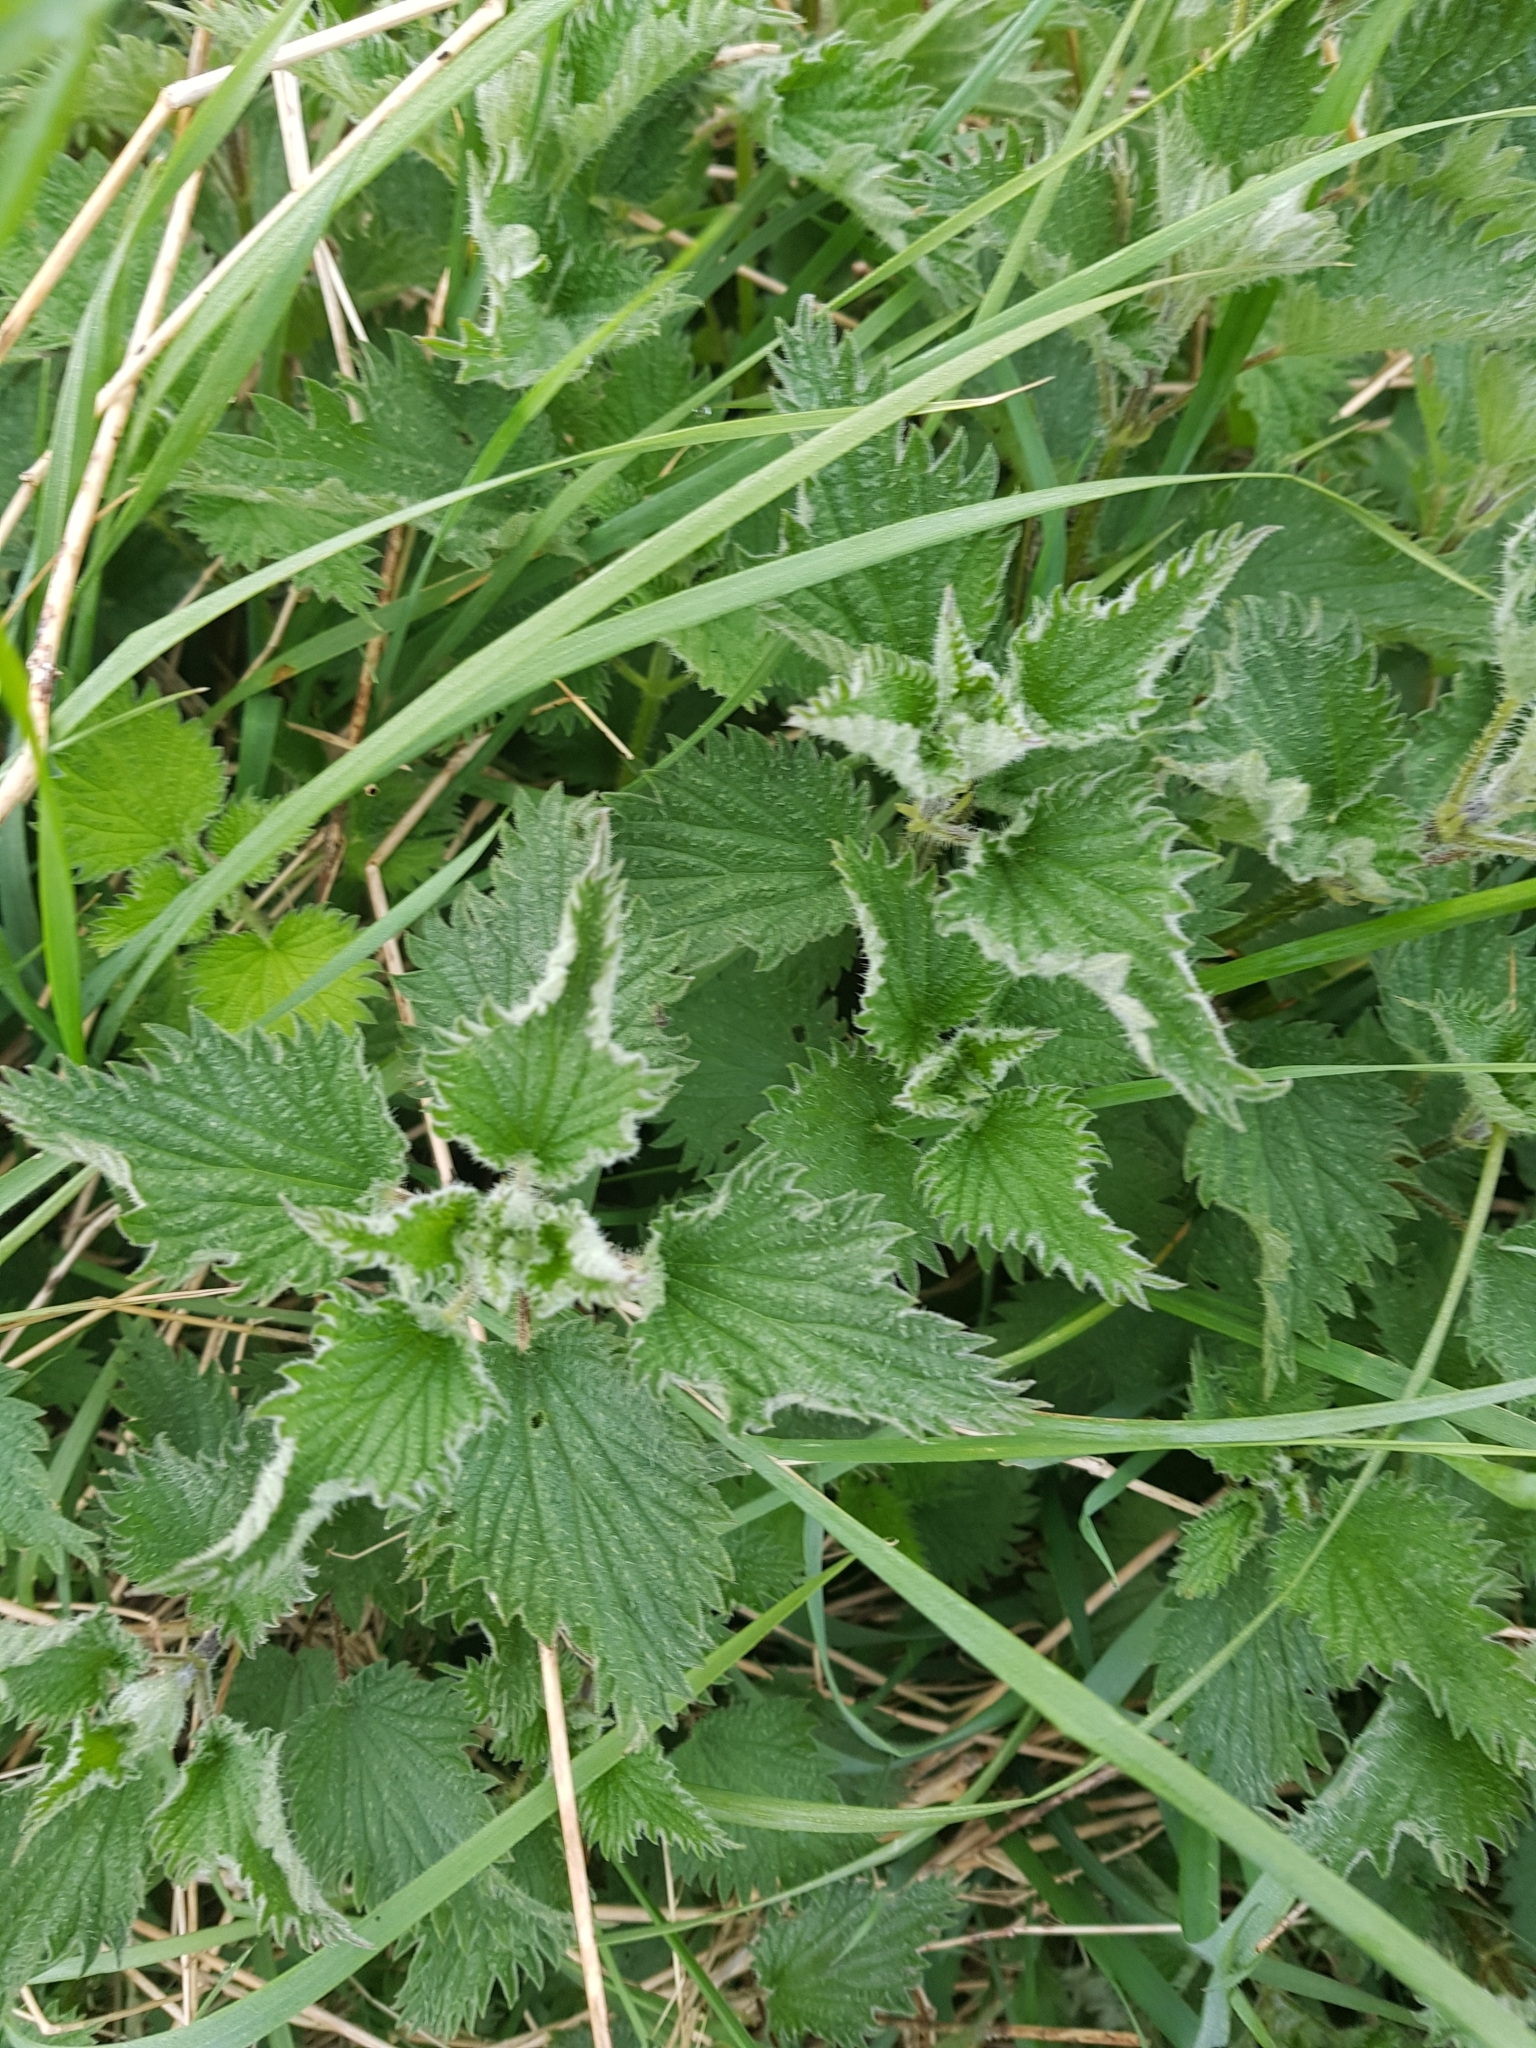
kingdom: Plantae
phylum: Tracheophyta
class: Magnoliopsida
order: Rosales
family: Urticaceae
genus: Urtica
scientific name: Urtica dioica
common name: Common nettle
